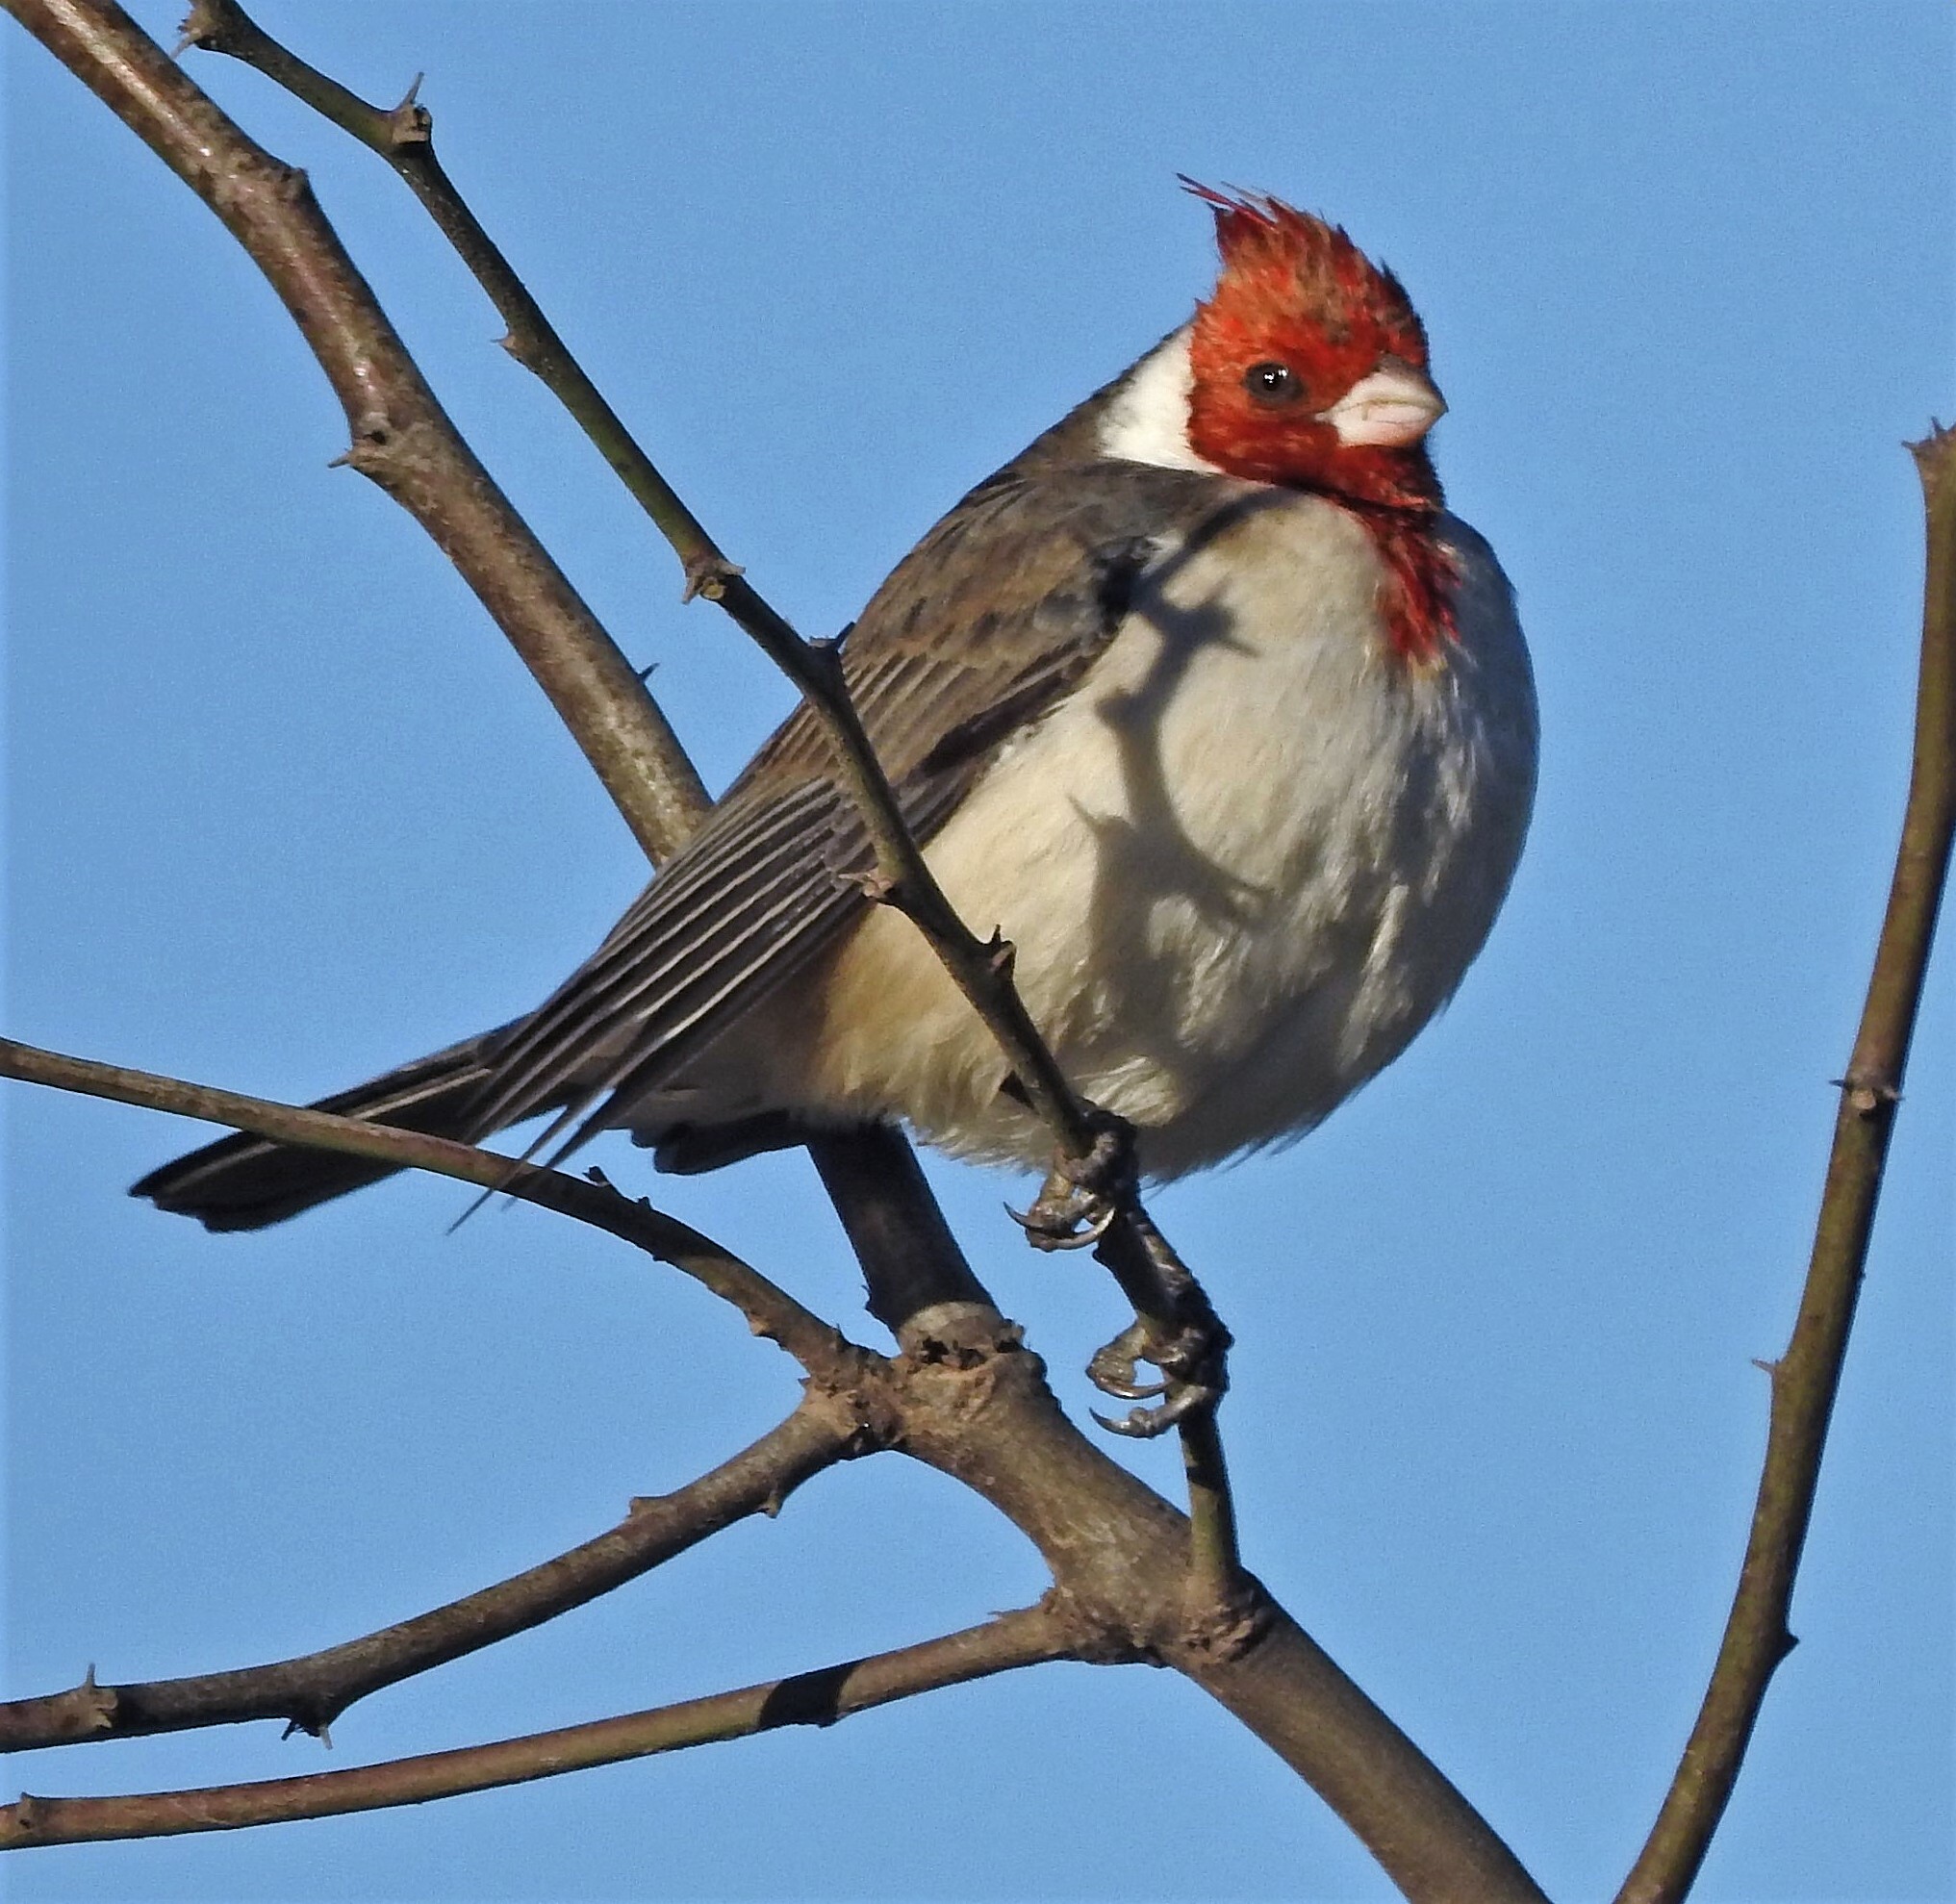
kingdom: Animalia
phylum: Chordata
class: Aves
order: Passeriformes
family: Thraupidae
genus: Paroaria
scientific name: Paroaria coronata
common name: Red-crested cardinal
